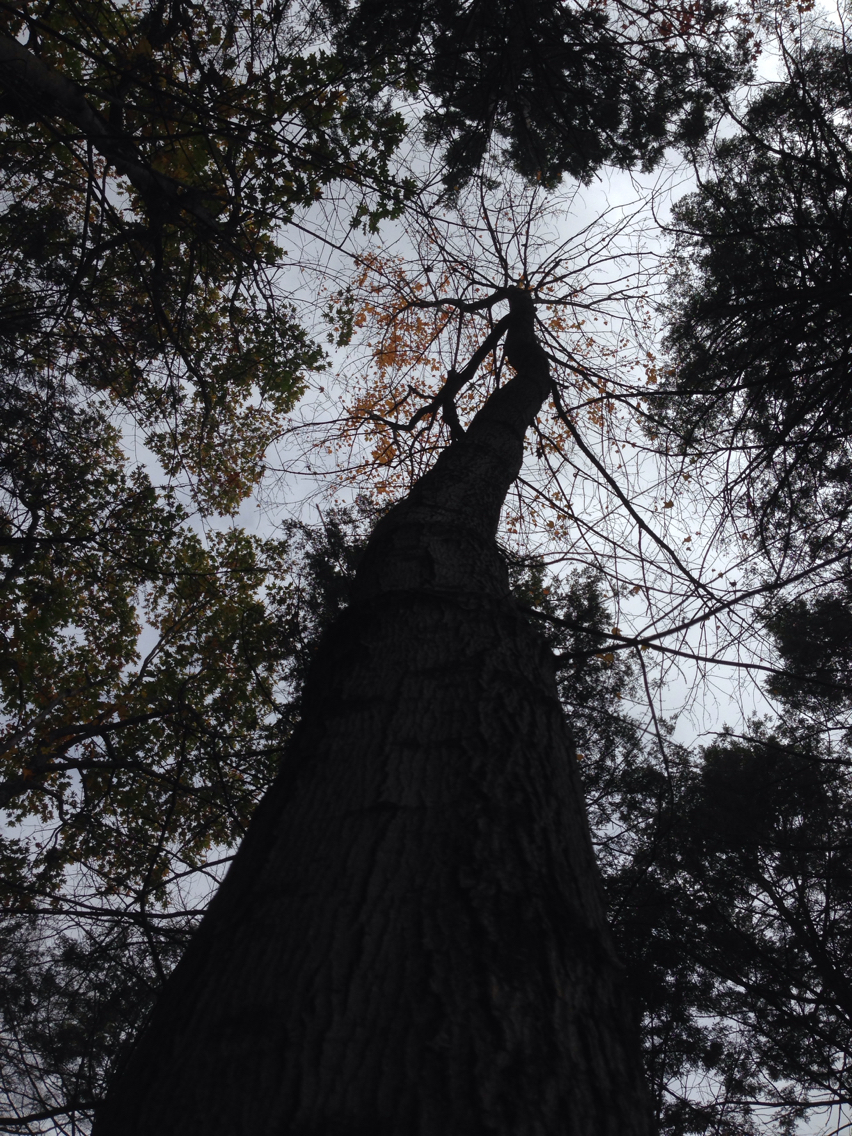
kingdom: Plantae
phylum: Tracheophyta
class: Magnoliopsida
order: Sapindales
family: Sapindaceae
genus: Acer
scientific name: Acer rubrum
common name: Red maple
